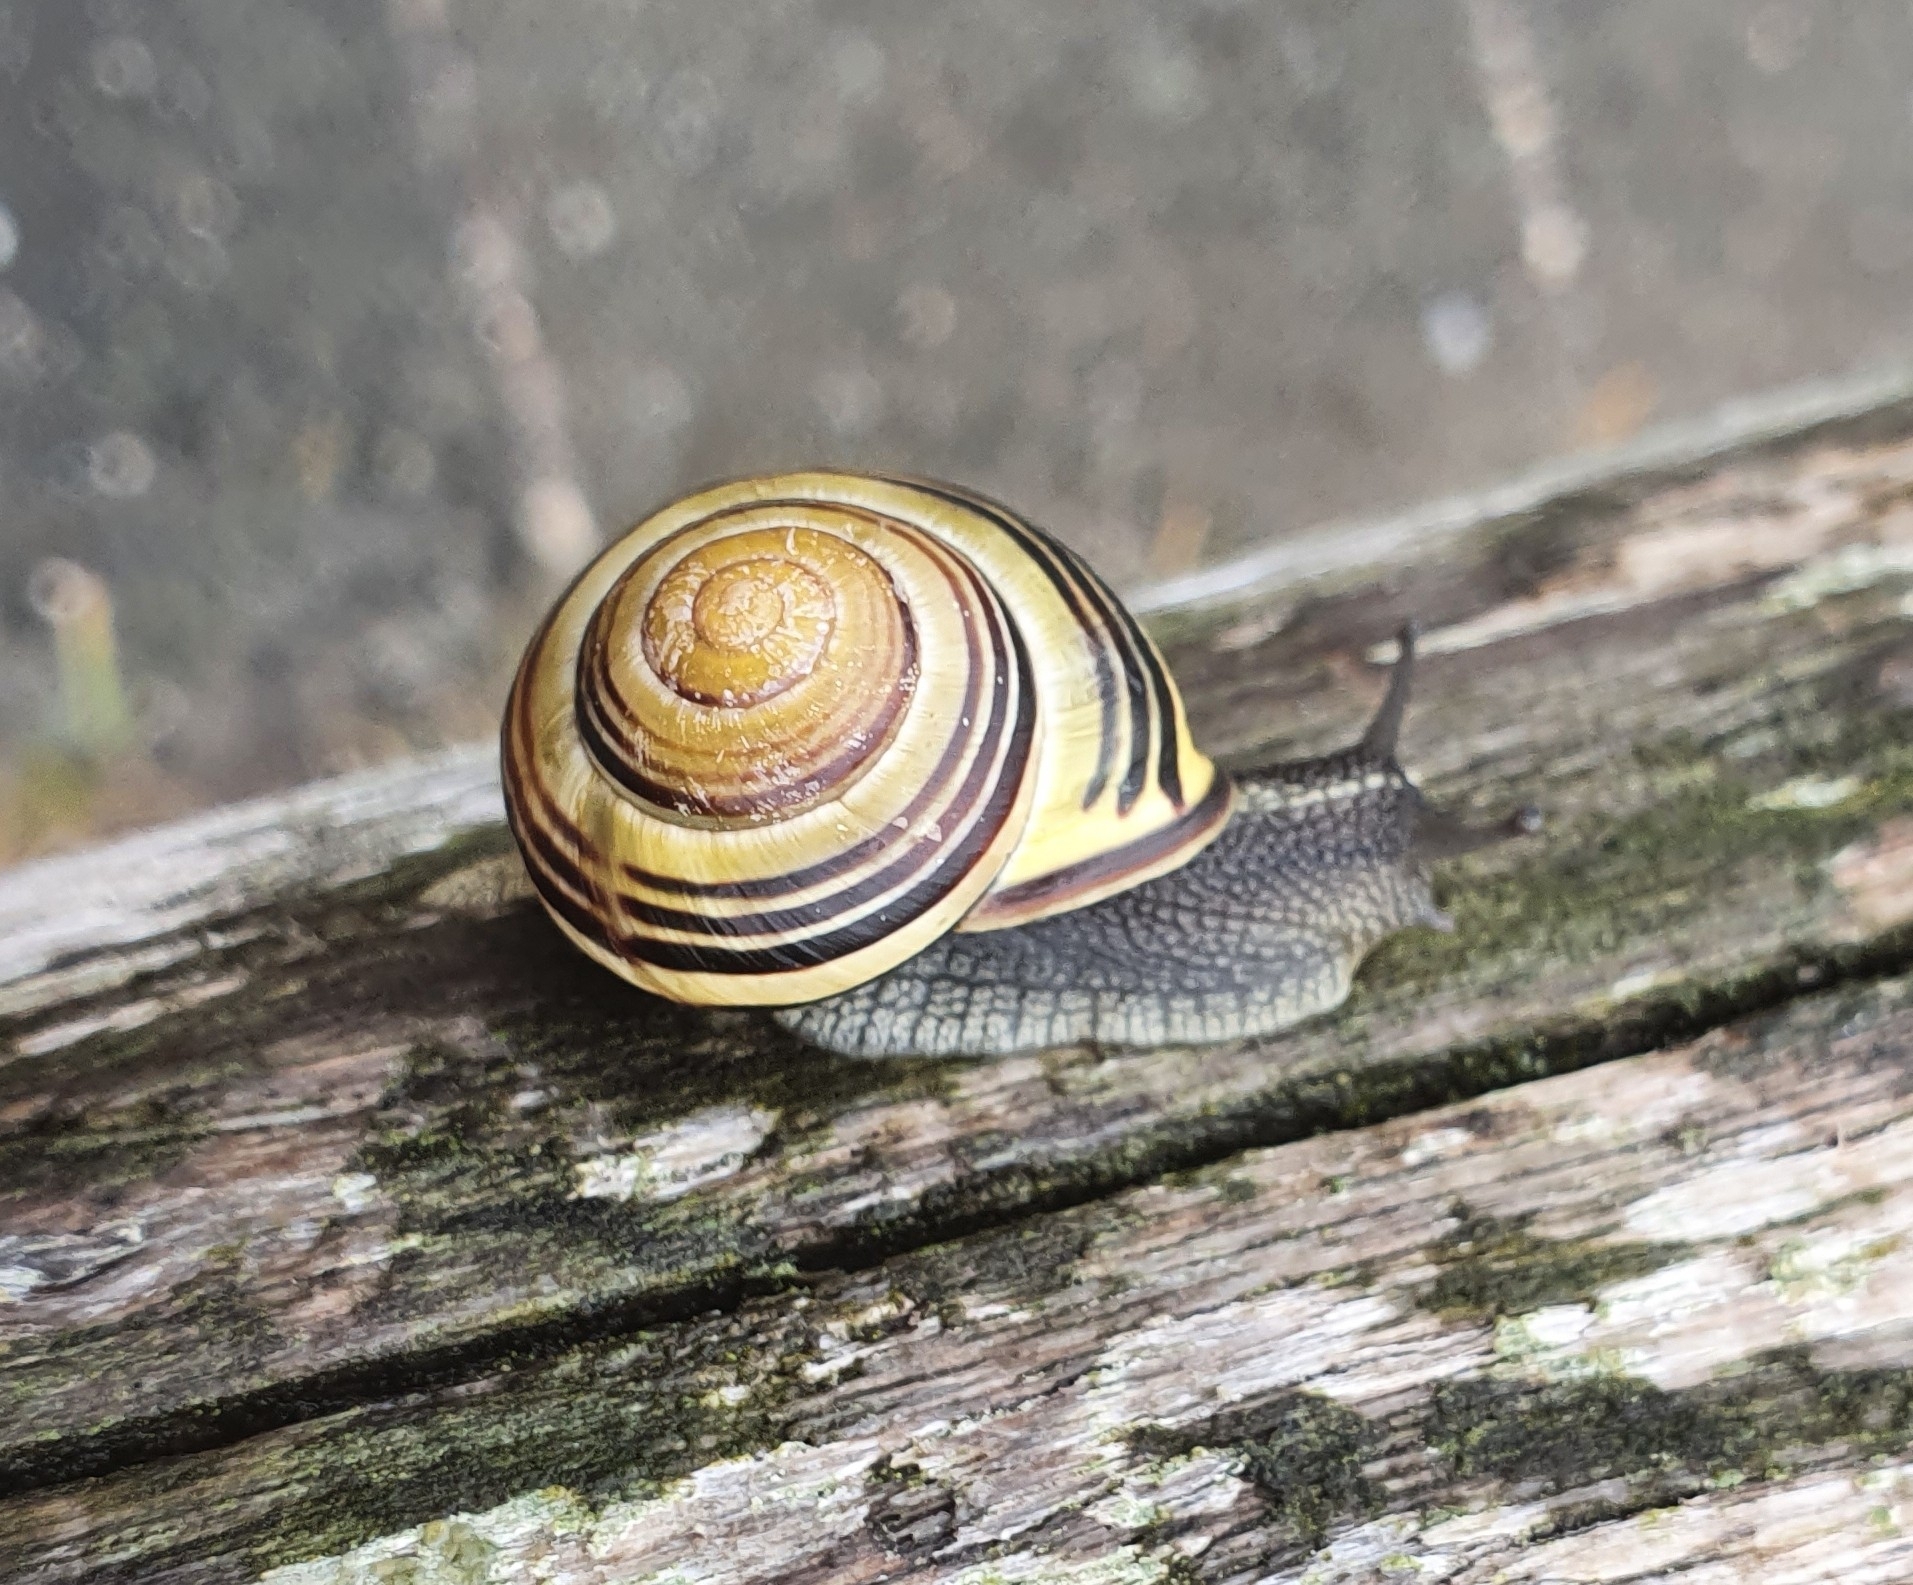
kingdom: Animalia
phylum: Mollusca
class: Gastropoda
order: Stylommatophora
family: Helicidae
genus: Cepaea
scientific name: Cepaea nemoralis
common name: Grovesnail
